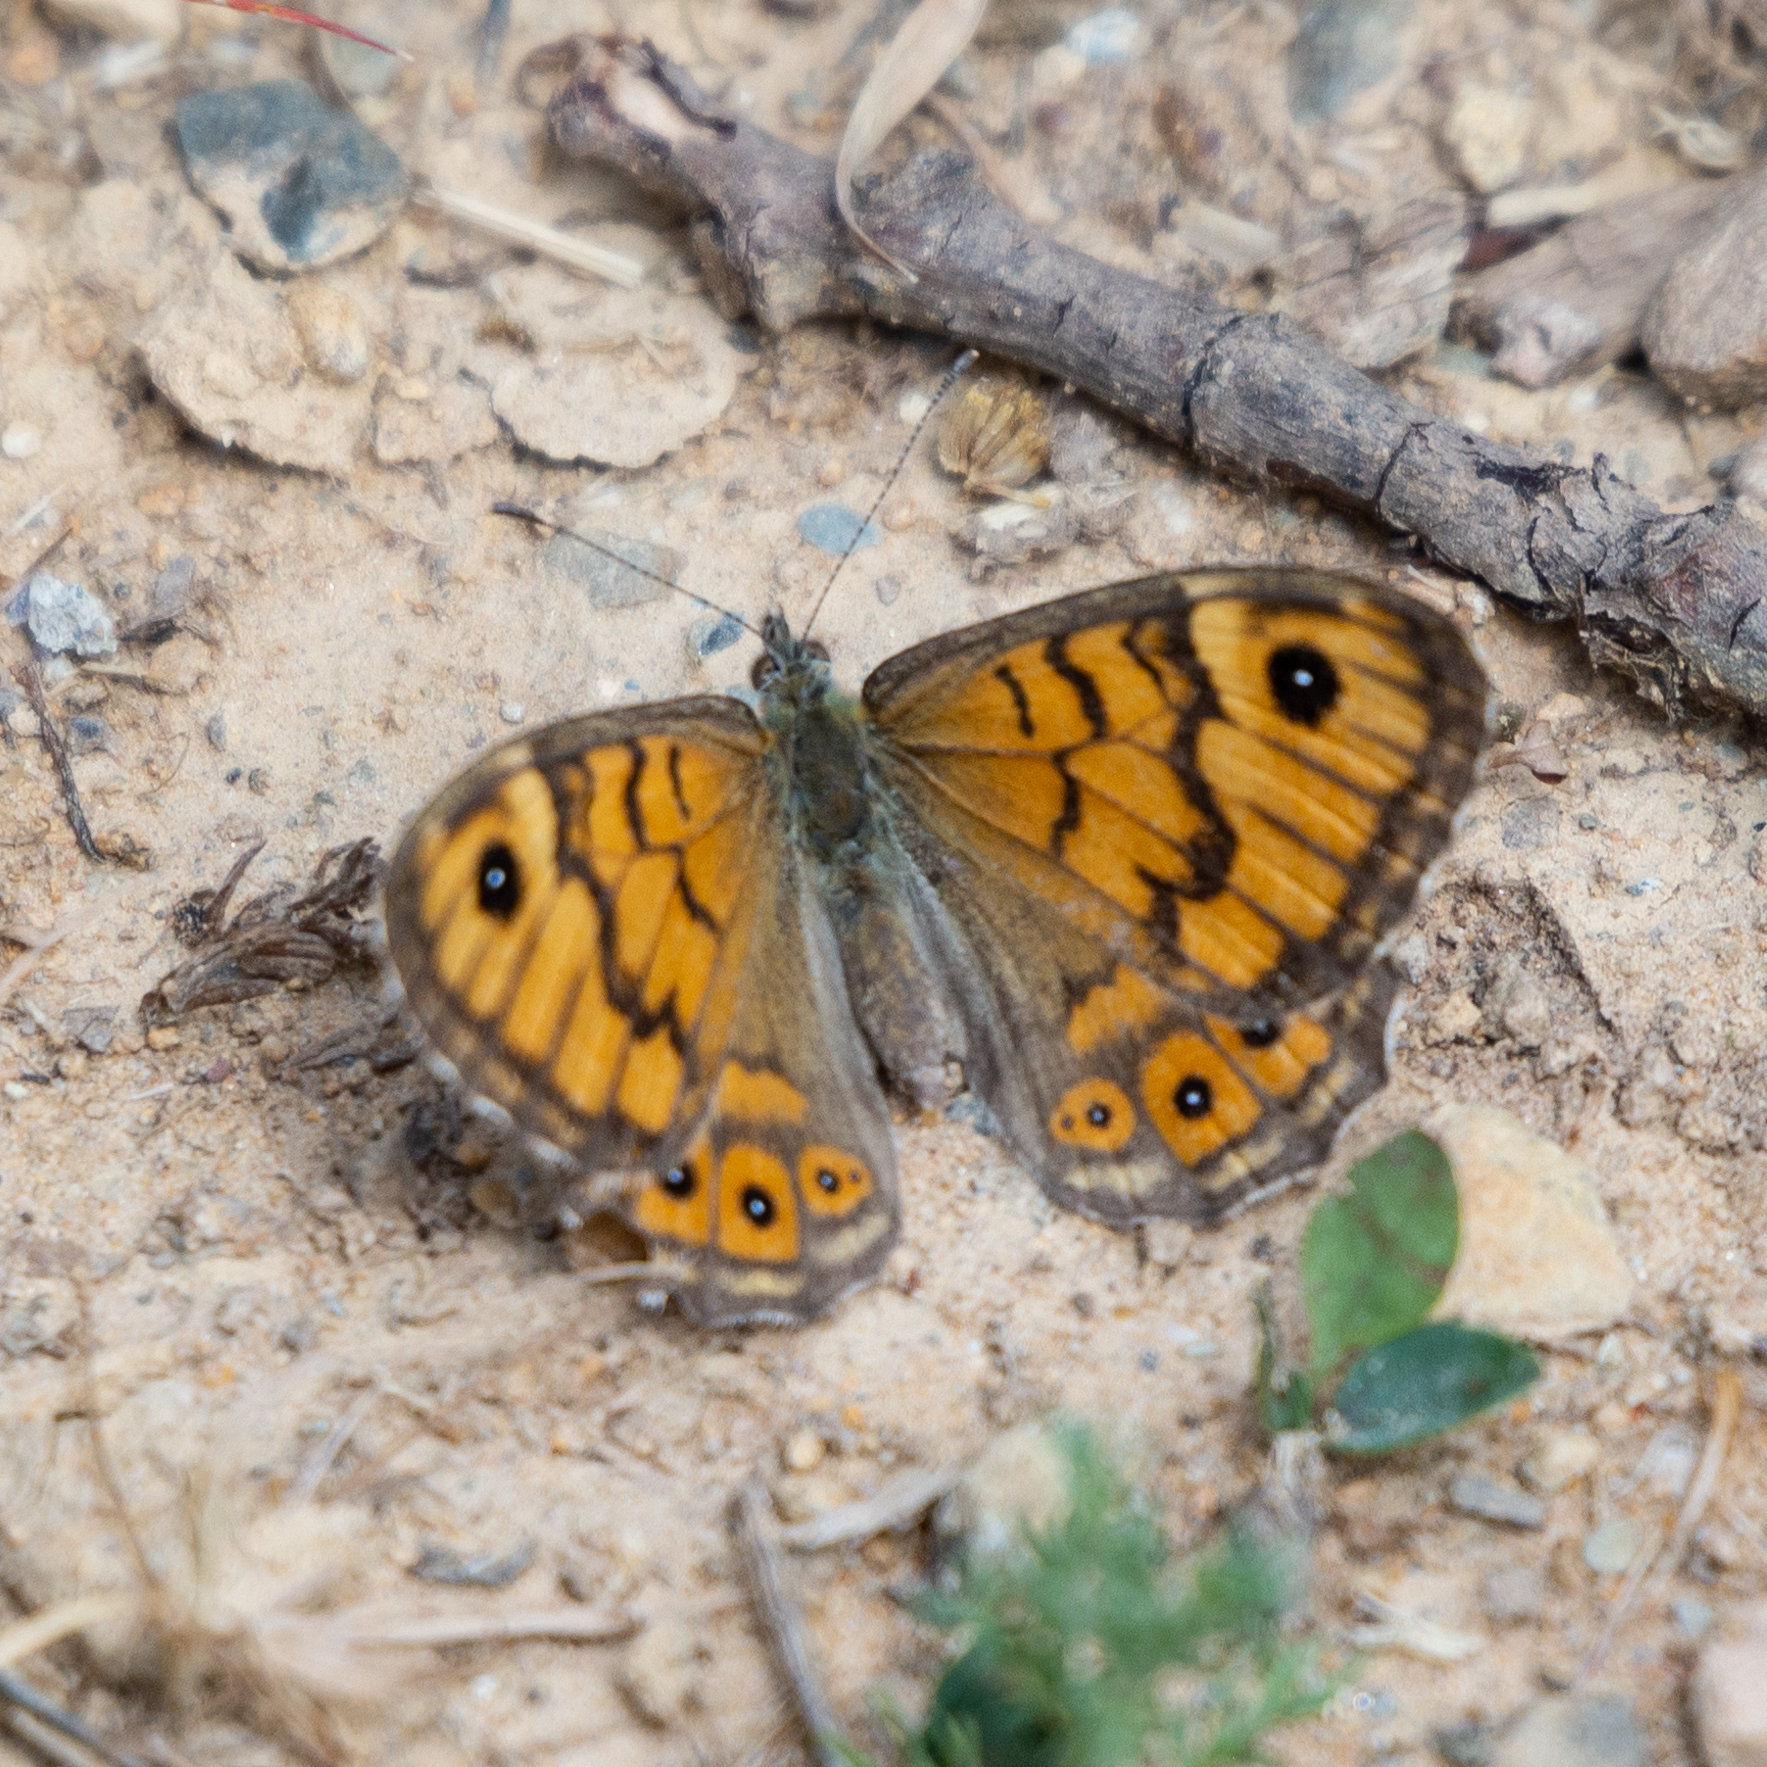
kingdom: Animalia
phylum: Arthropoda
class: Insecta
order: Lepidoptera
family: Nymphalidae
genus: Pararge
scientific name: Pararge Lasiommata megera
